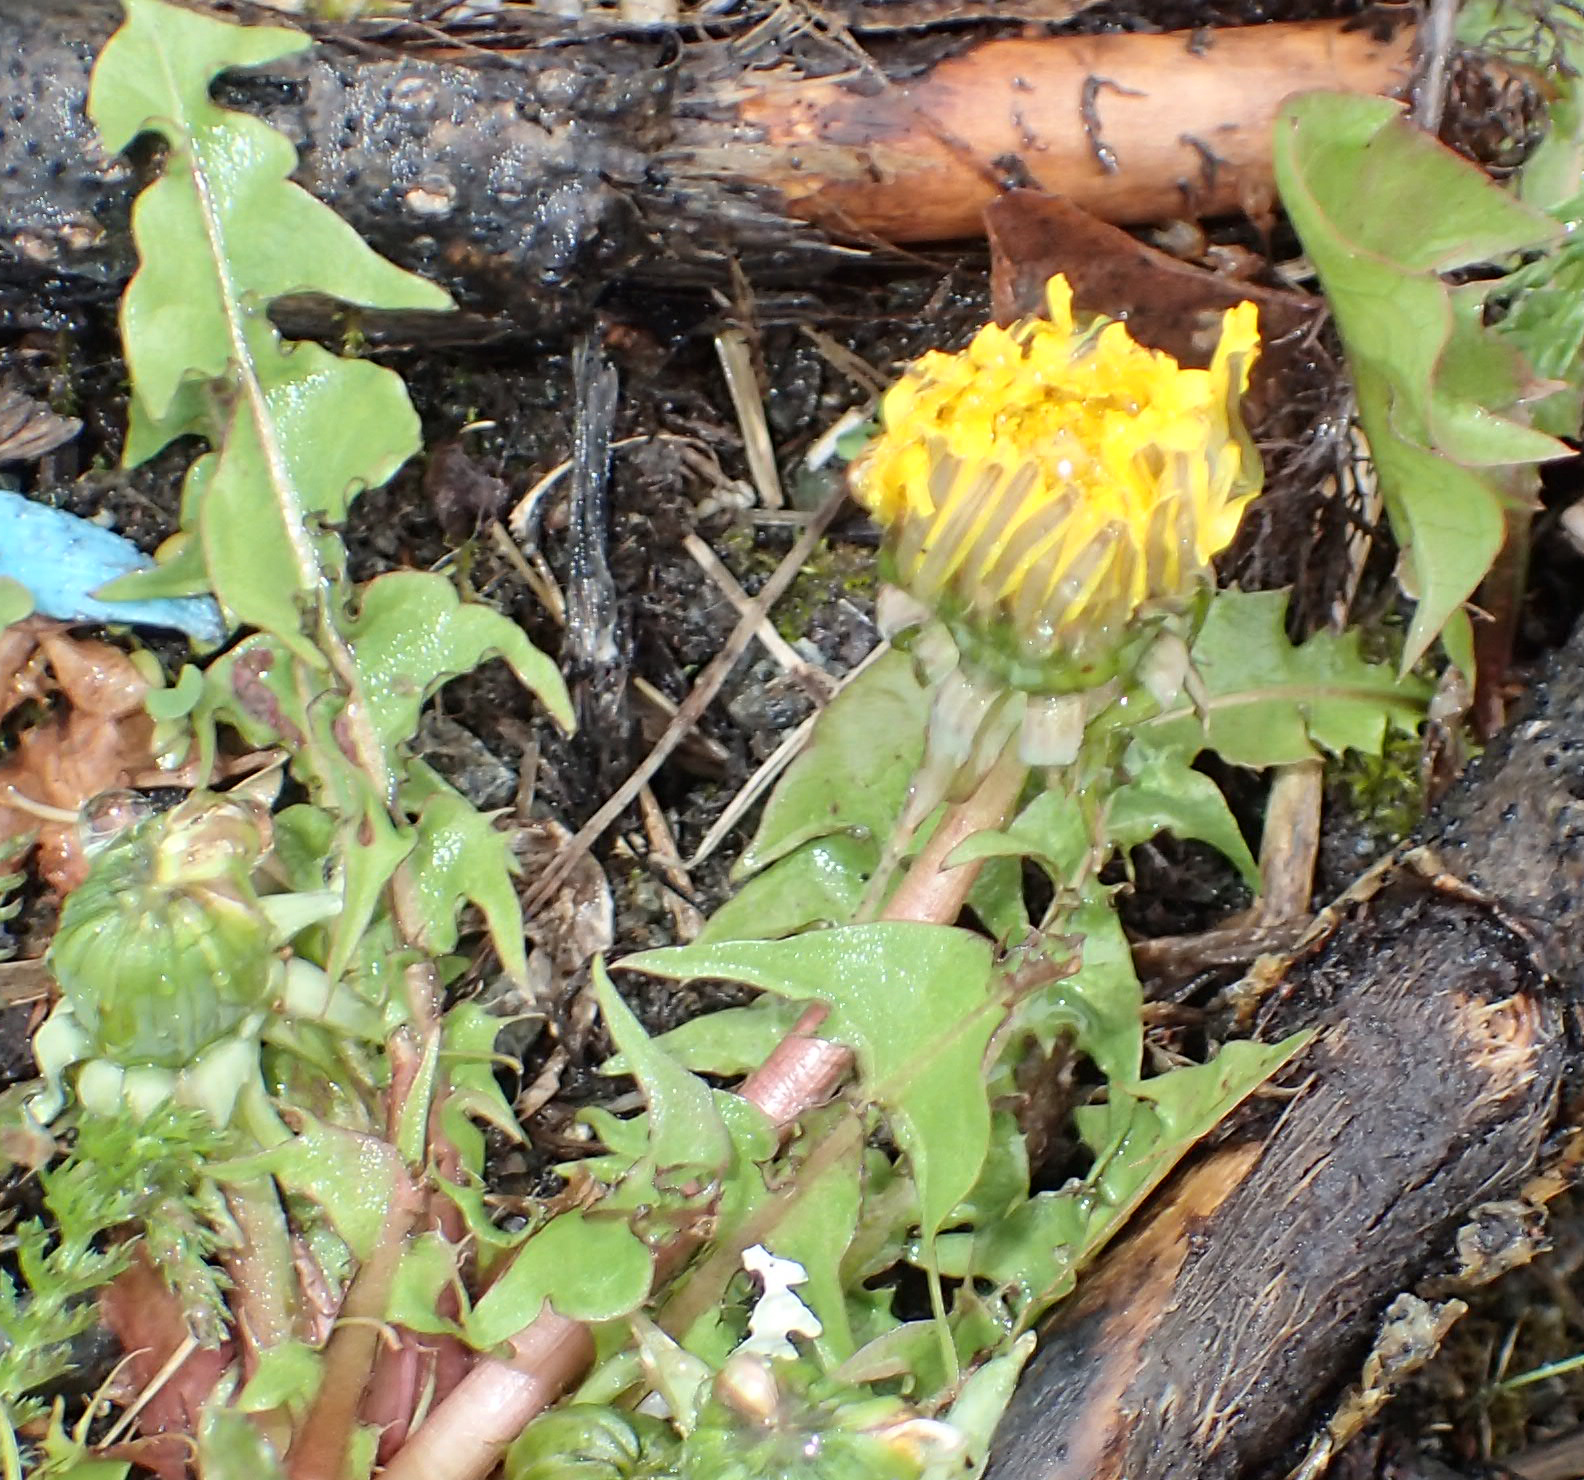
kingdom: Plantae
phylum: Tracheophyta
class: Magnoliopsida
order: Asterales
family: Asteraceae
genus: Taraxacum
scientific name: Taraxacum officinale
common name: Common dandelion
